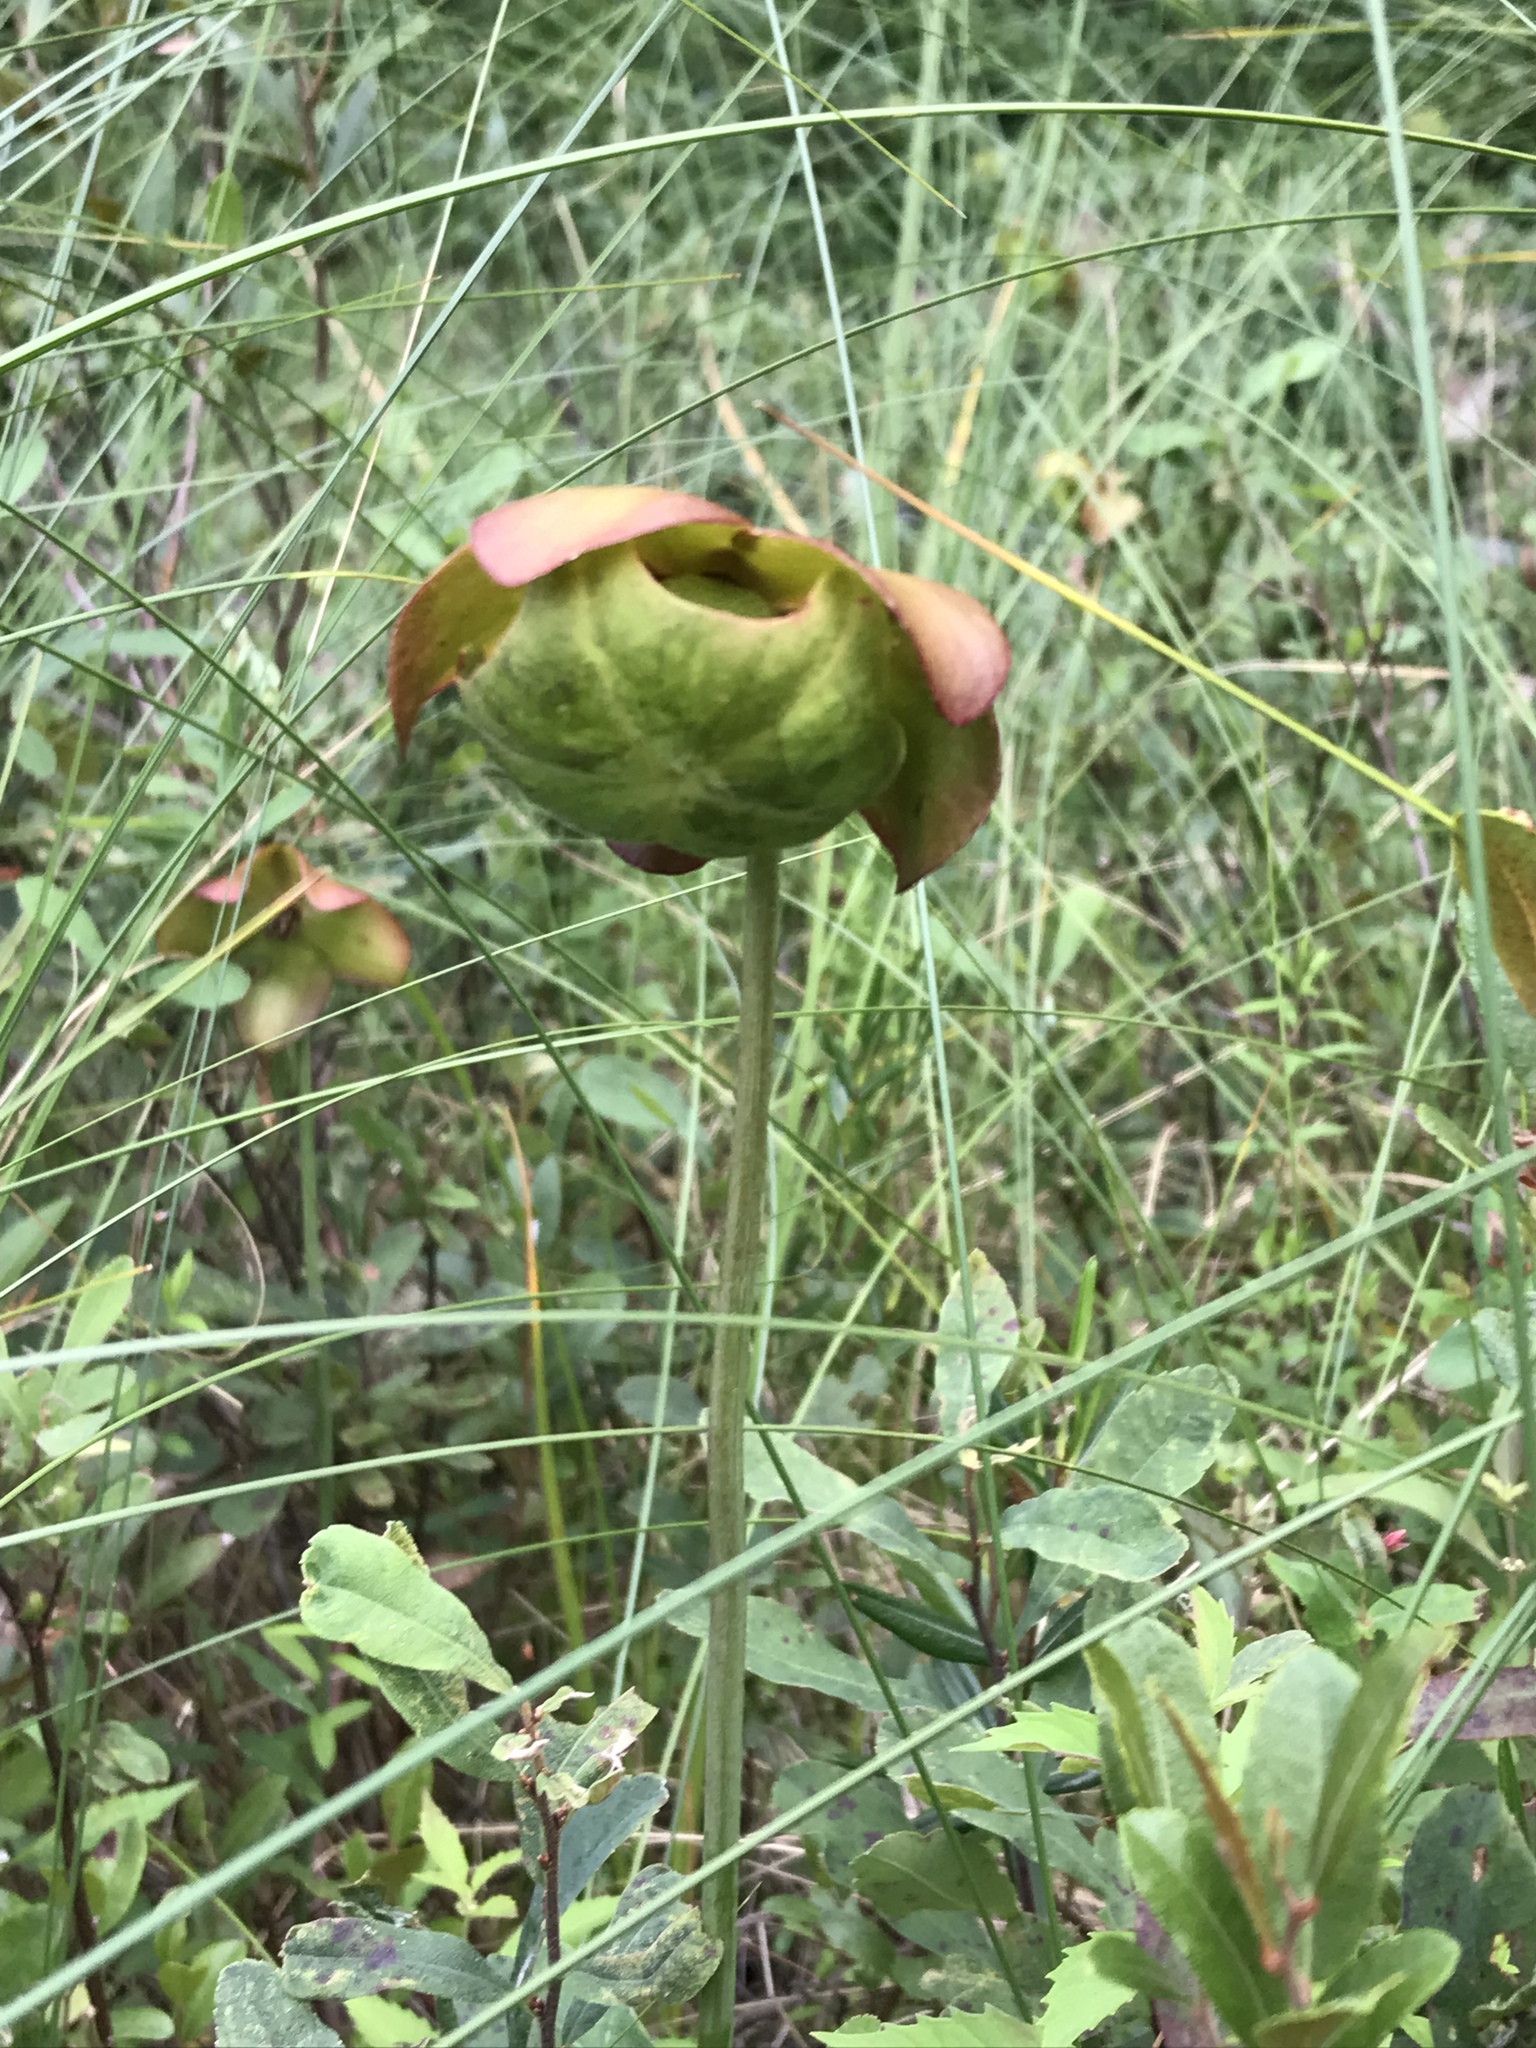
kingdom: Plantae
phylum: Tracheophyta
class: Magnoliopsida
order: Ericales
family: Sarraceniaceae
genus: Sarracenia
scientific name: Sarracenia purpurea
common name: Pitcherplant
